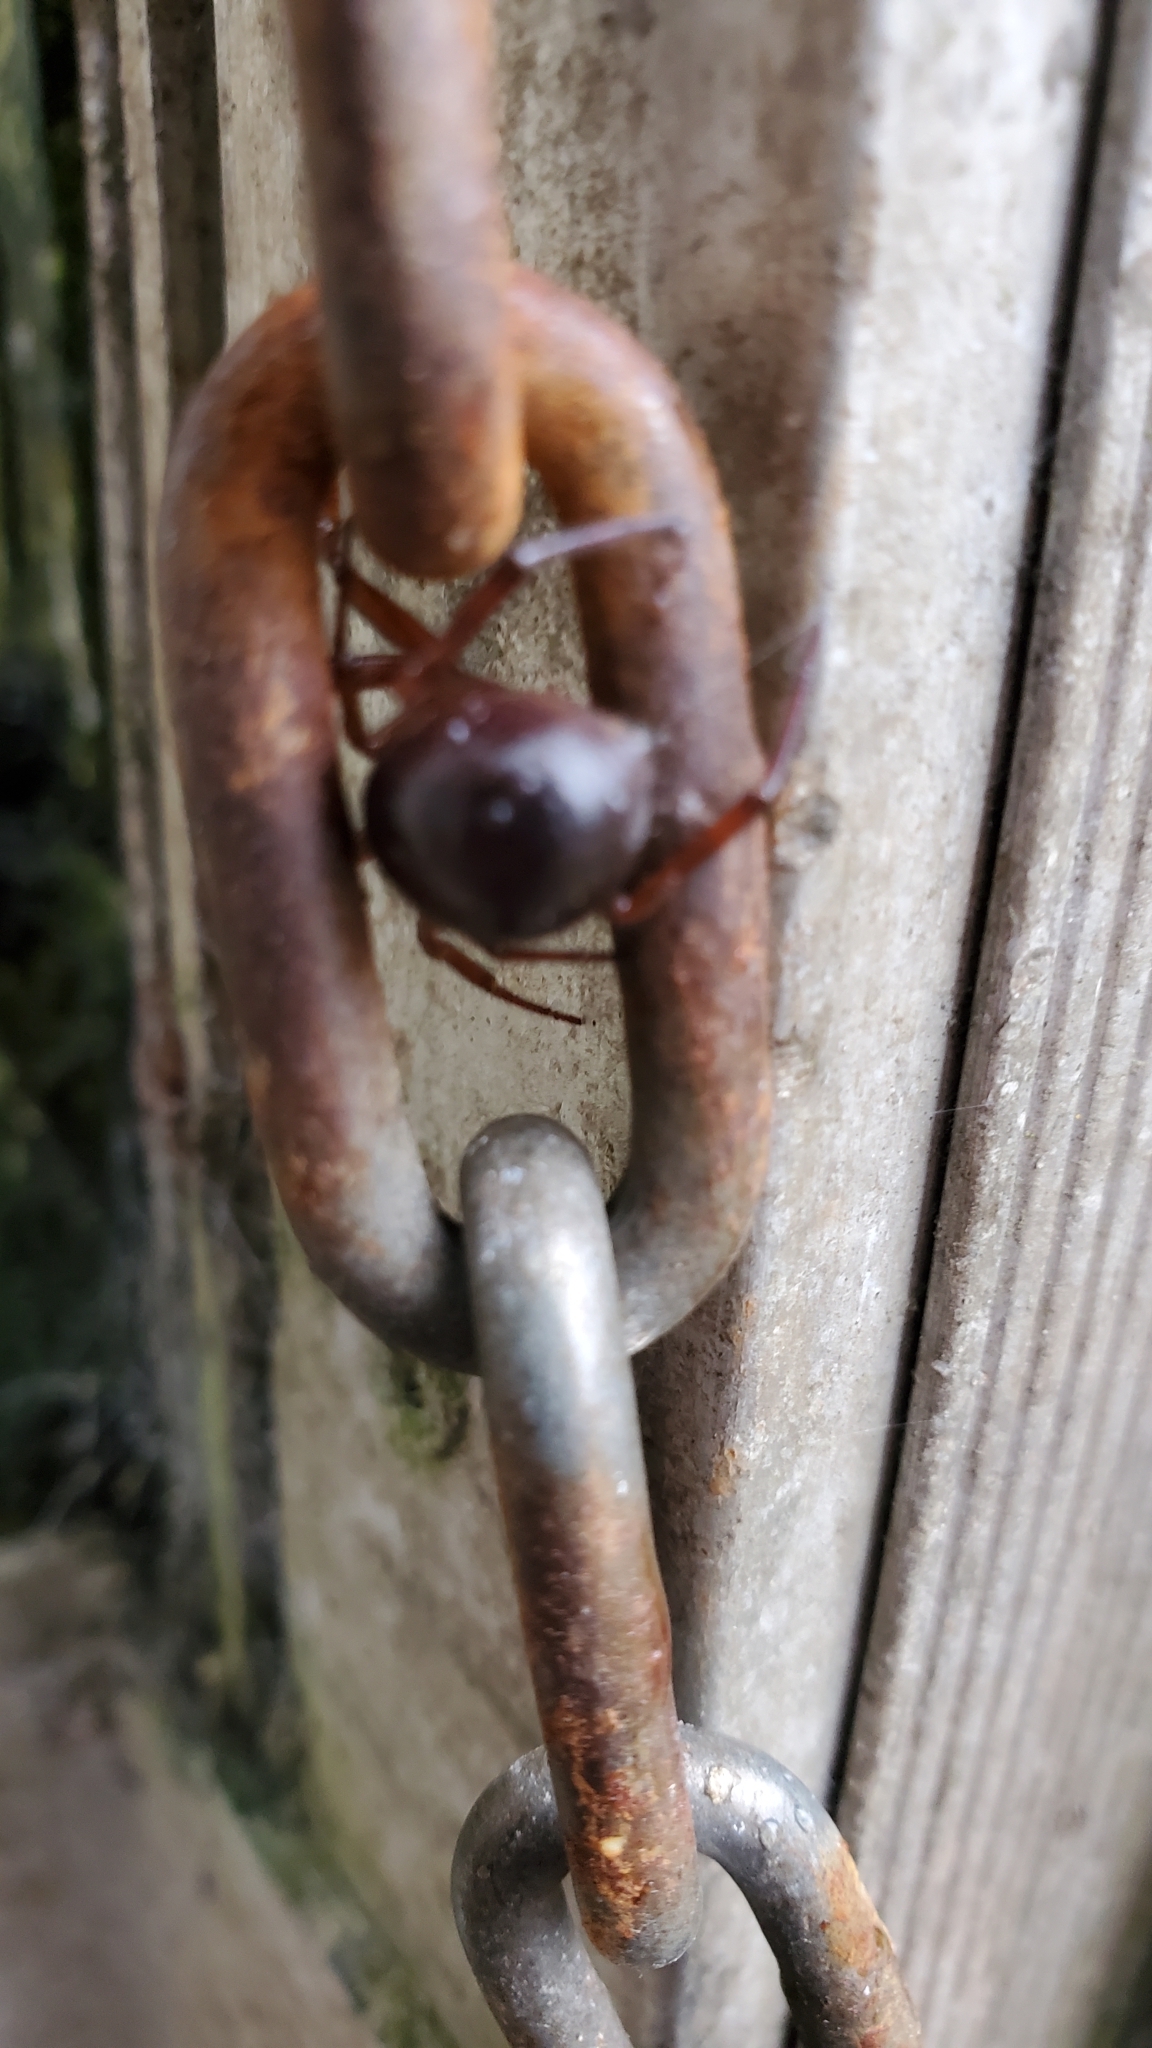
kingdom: Animalia
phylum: Arthropoda
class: Arachnida
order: Araneae
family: Theridiidae
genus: Steatoda
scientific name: Steatoda nobilis
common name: Cobweb weaver
